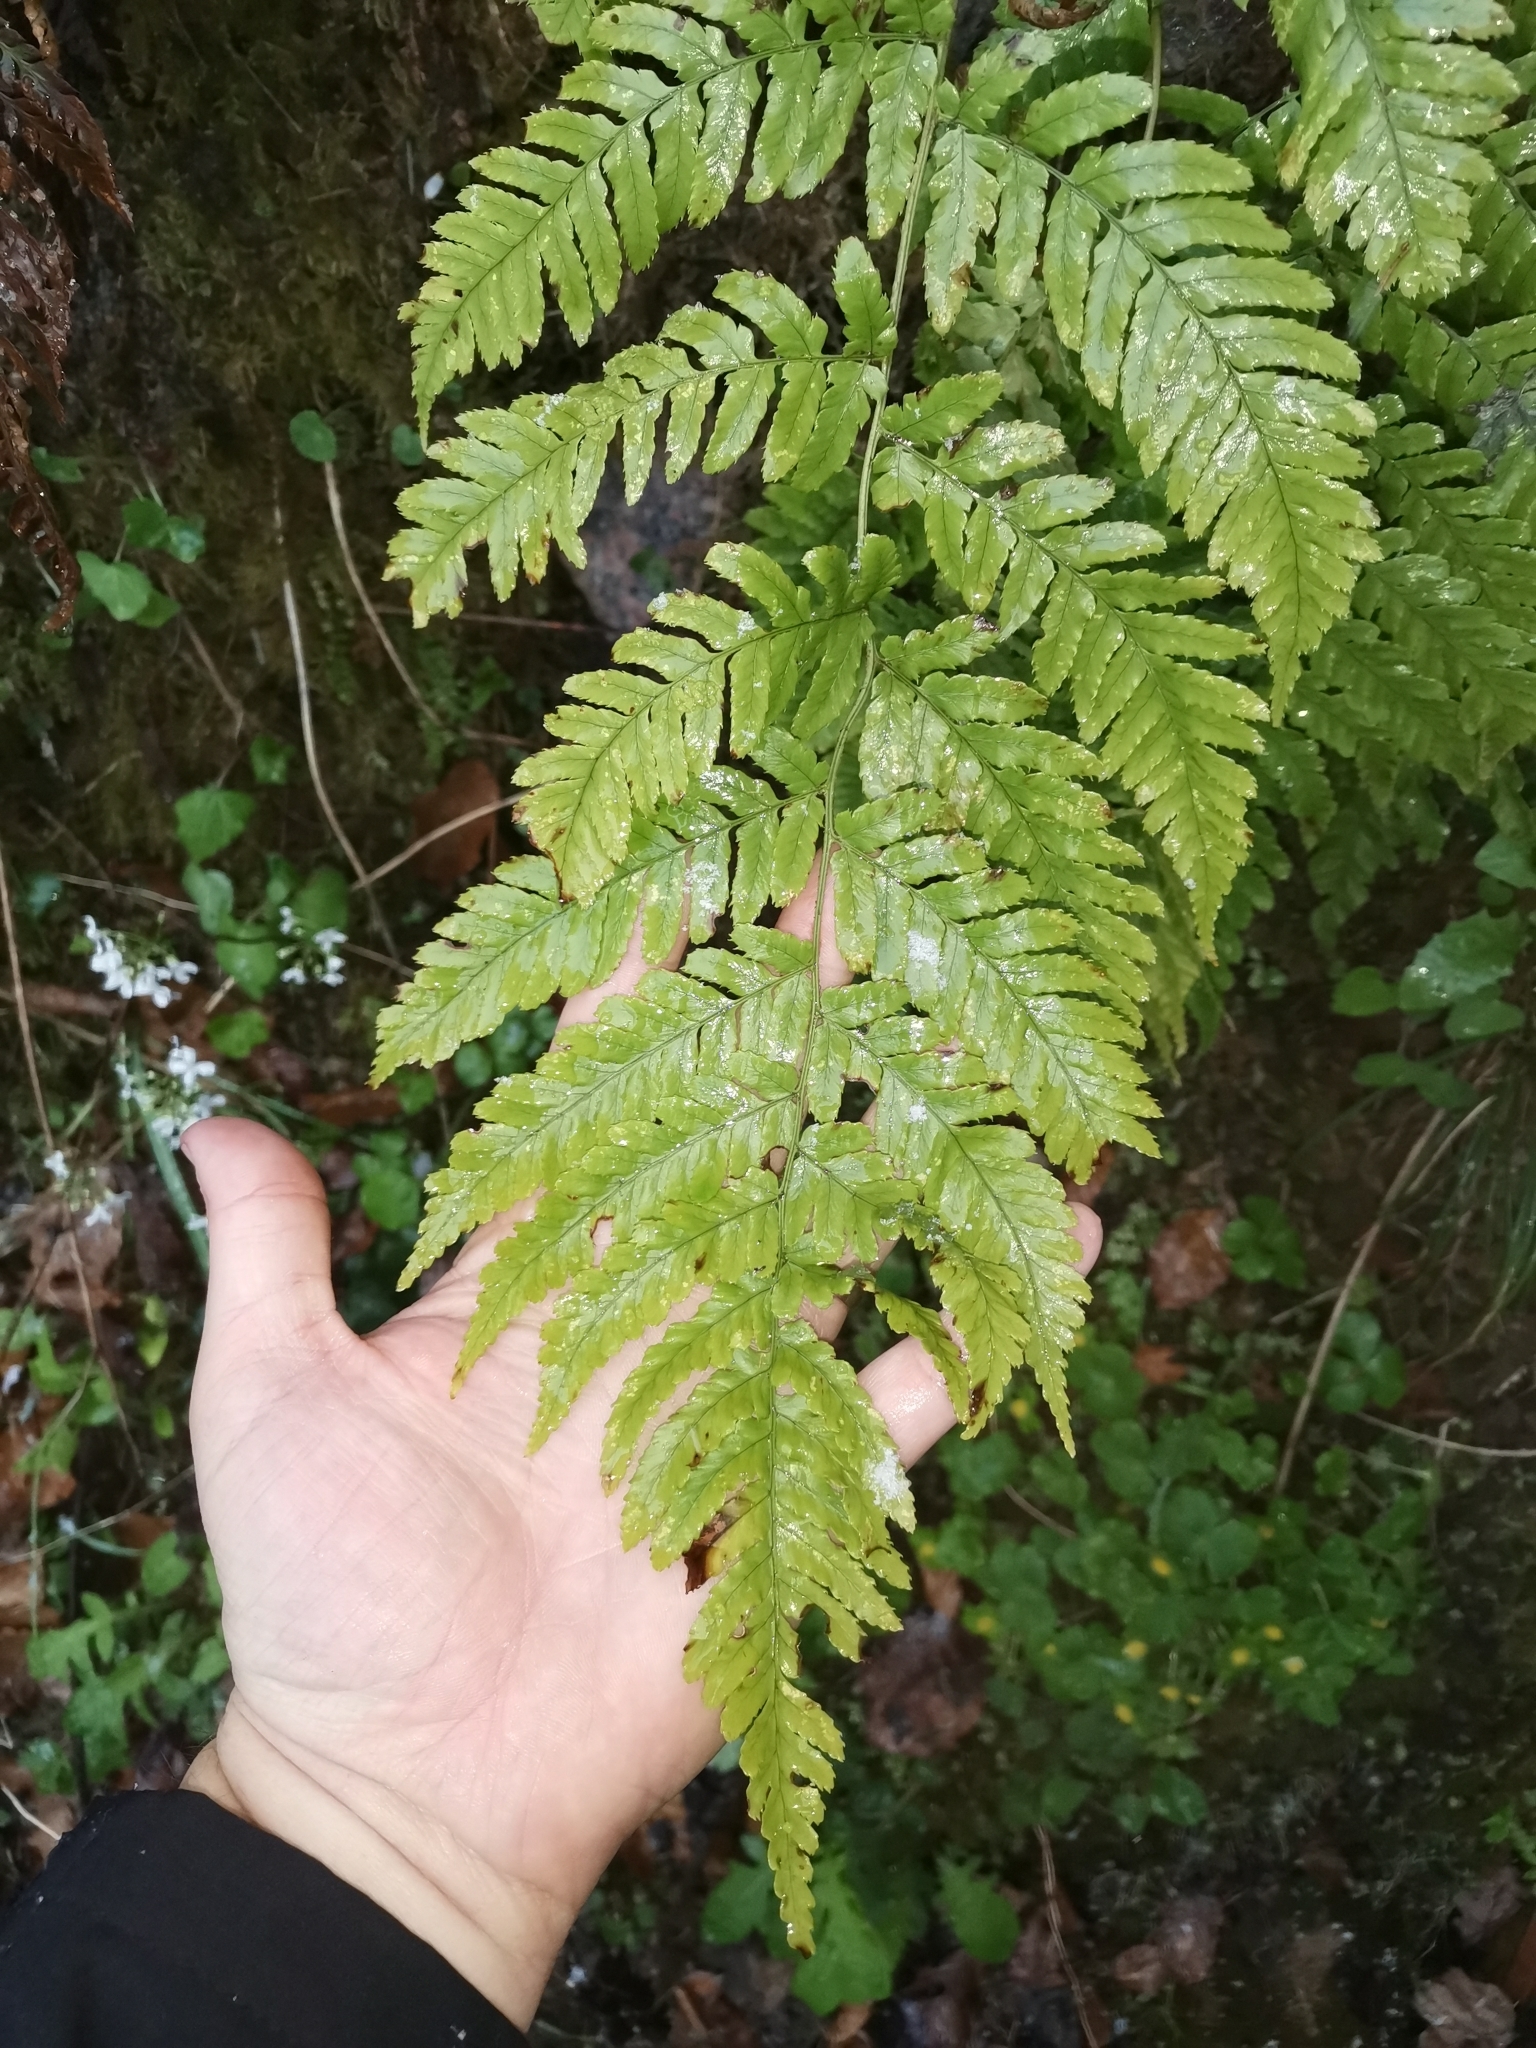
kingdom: Plantae
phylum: Tracheophyta
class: Polypodiopsida
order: Polypodiales
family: Dryopteridaceae
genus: Dryopteris
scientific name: Dryopteris erythrosora
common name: Autumn fern
